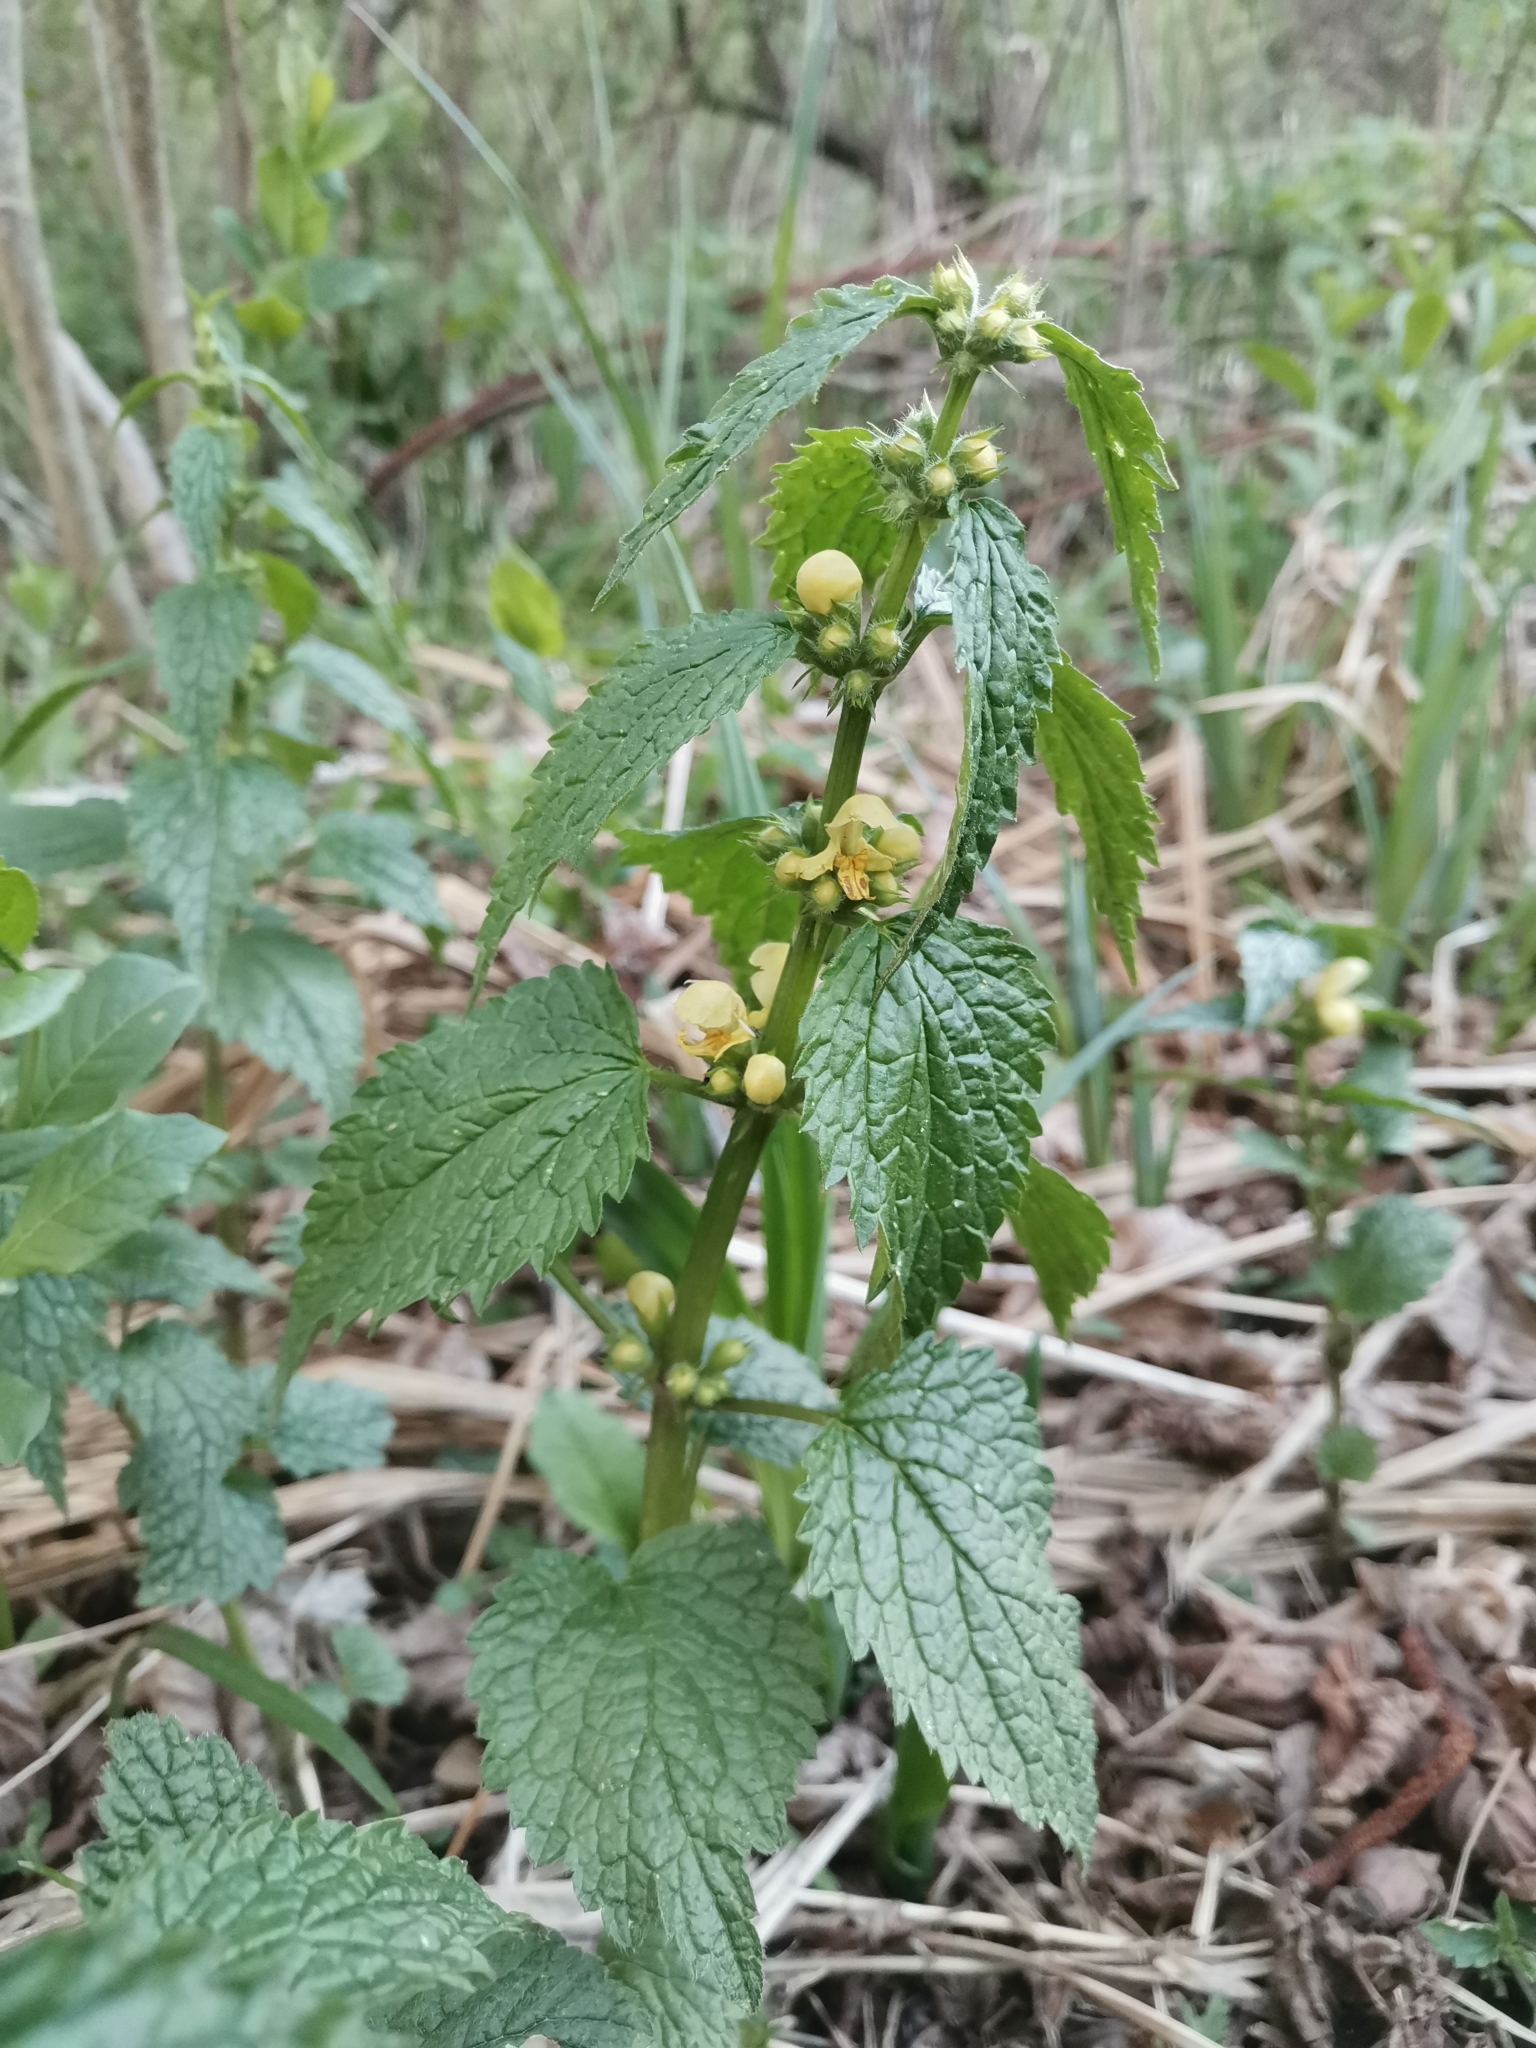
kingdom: Plantae
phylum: Tracheophyta
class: Magnoliopsida
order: Lamiales
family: Lamiaceae
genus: Lamium
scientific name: Lamium galeobdolon
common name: Yellow archangel
